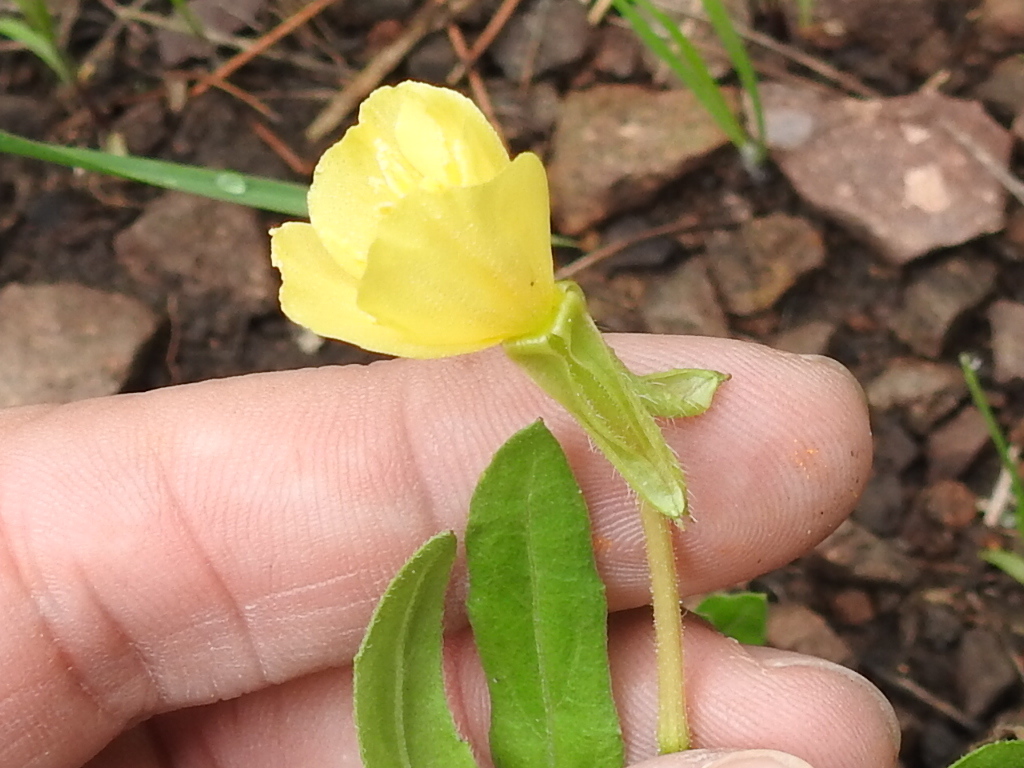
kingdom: Plantae
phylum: Tracheophyta
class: Magnoliopsida
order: Myrtales
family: Onagraceae
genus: Oenothera
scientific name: Oenothera elata
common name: Hooker's evening-primrose
